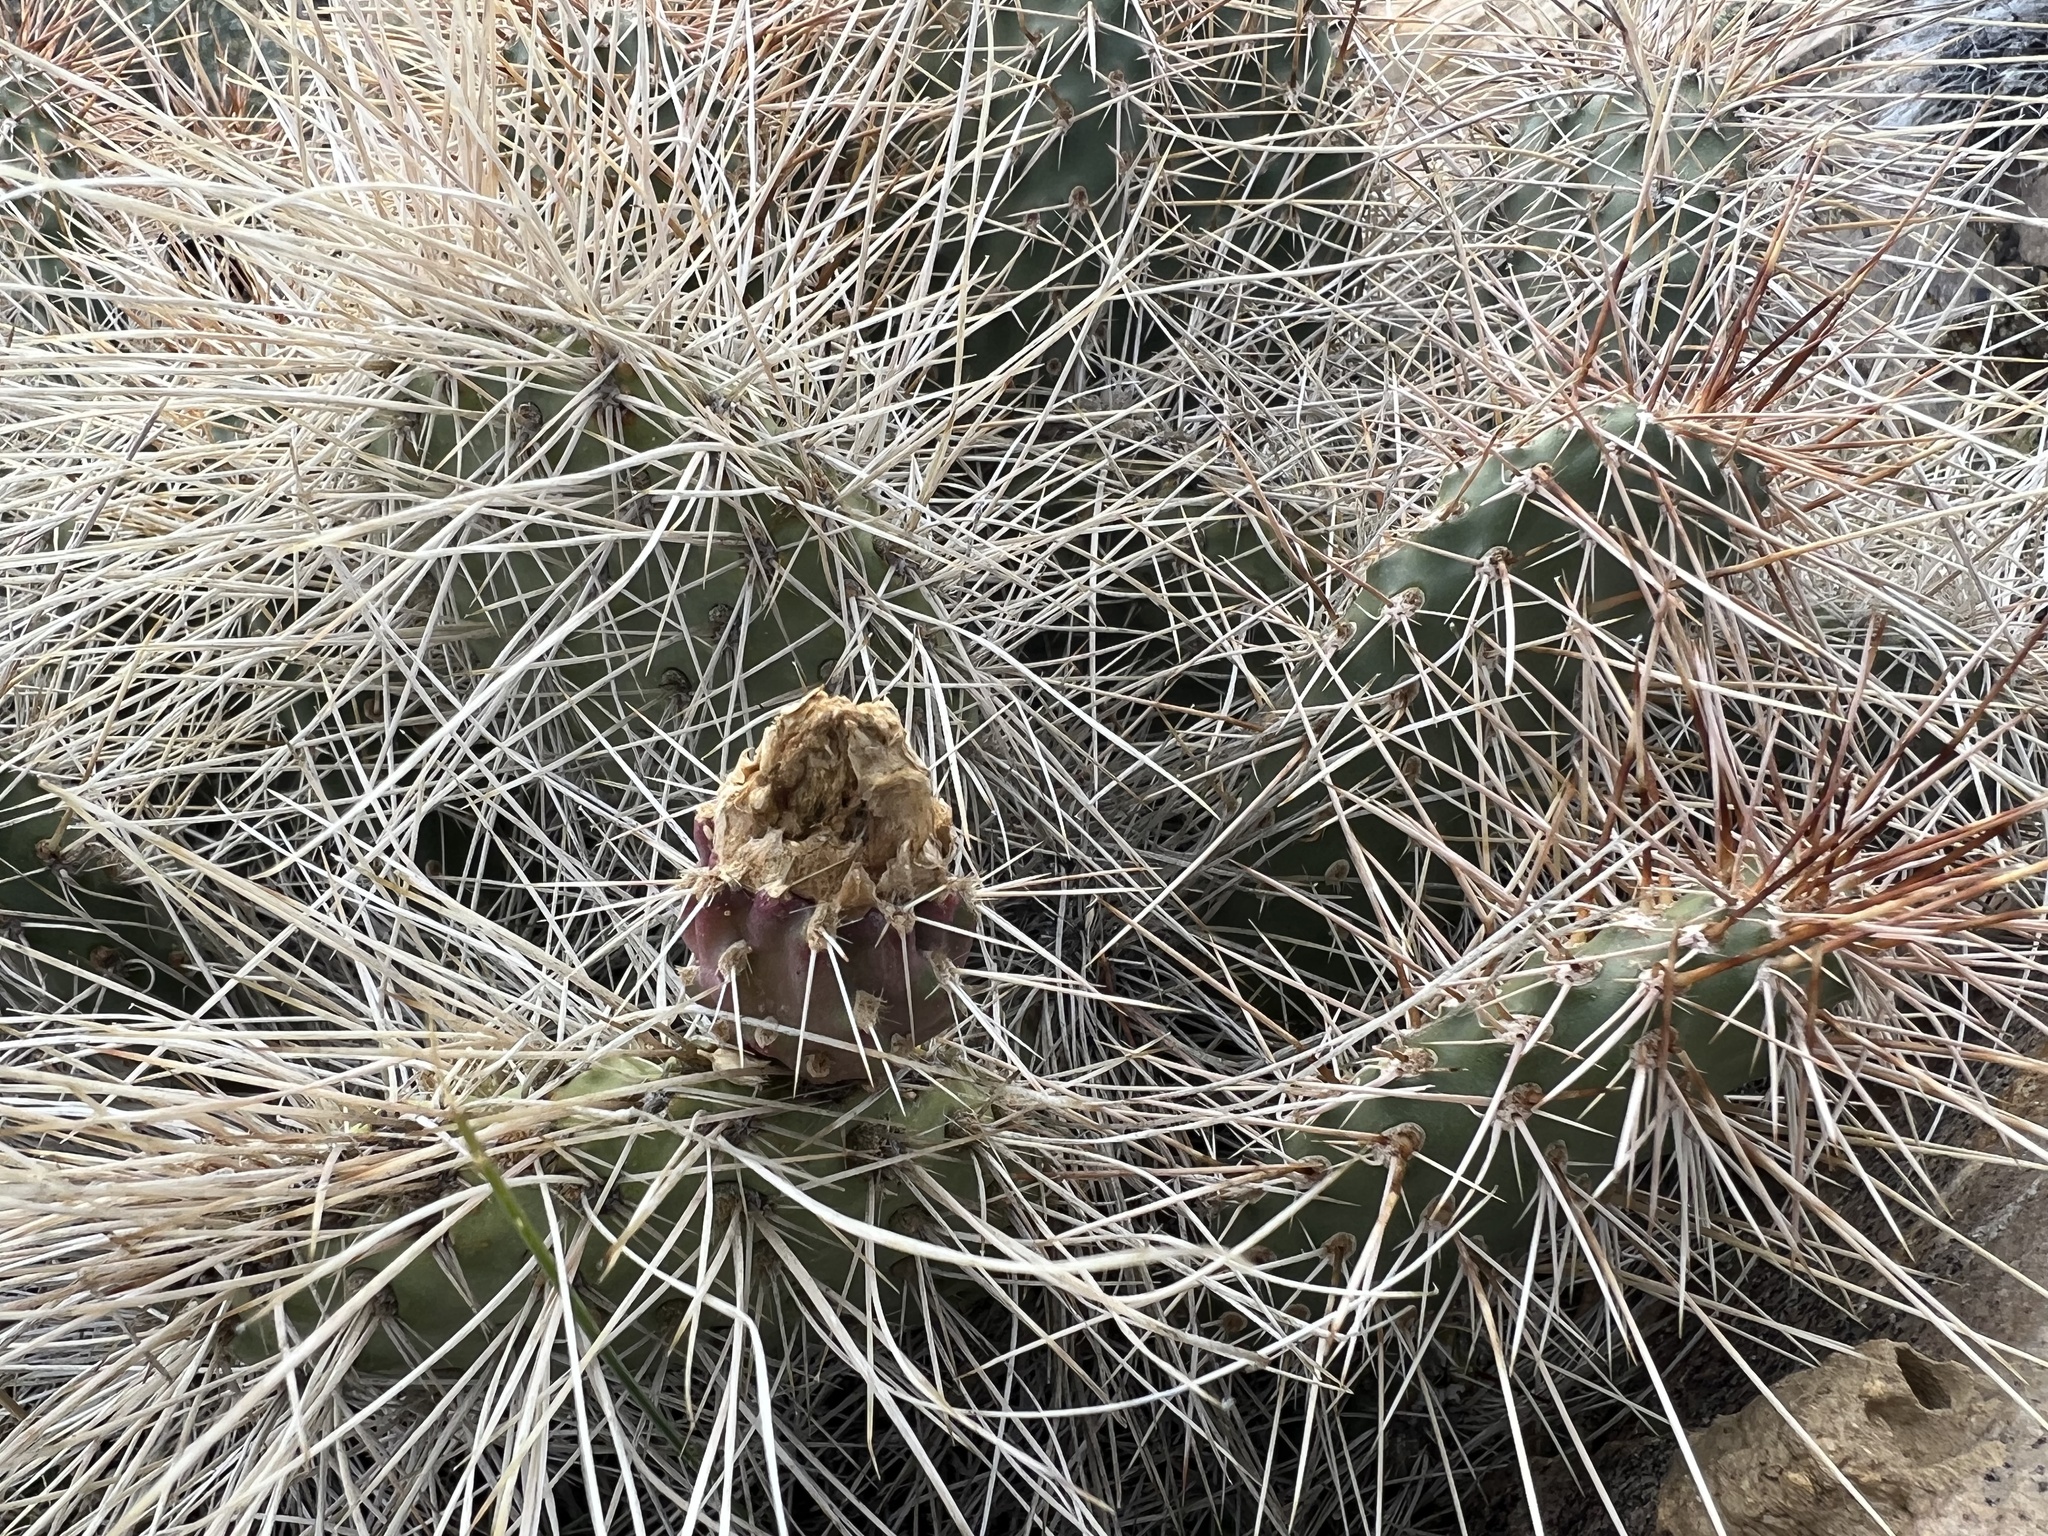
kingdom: Plantae
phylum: Tracheophyta
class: Magnoliopsida
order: Caryophyllales
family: Cactaceae
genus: Opuntia
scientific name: Opuntia polyacantha
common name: Plains prickly-pear
